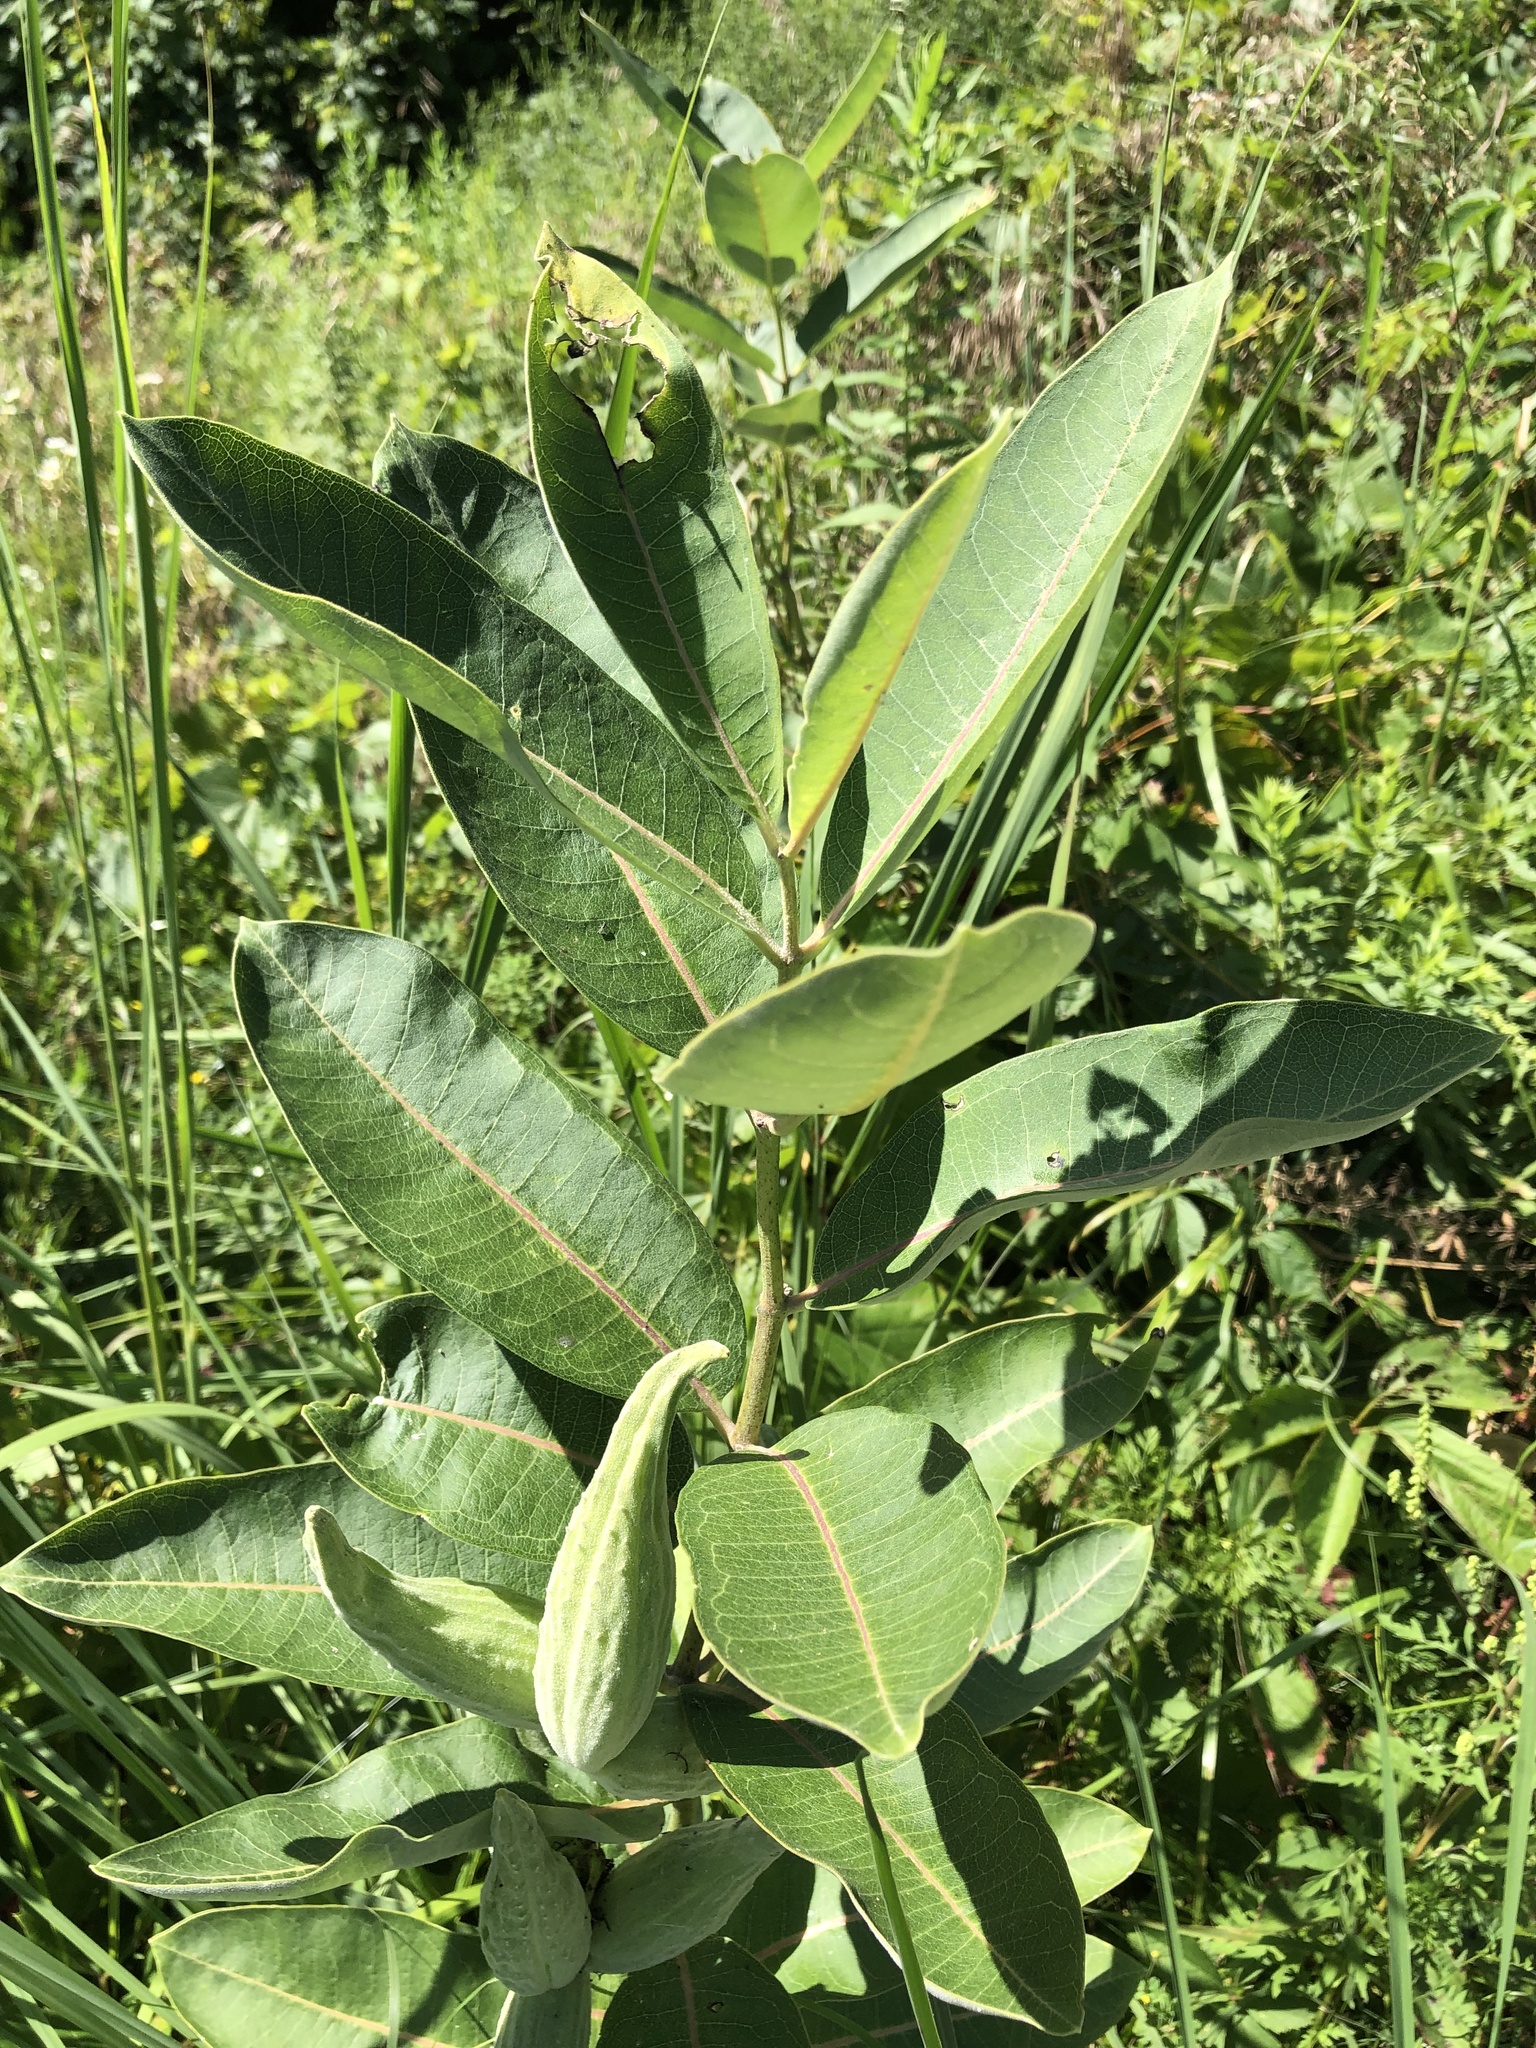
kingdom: Plantae
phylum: Tracheophyta
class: Magnoliopsida
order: Gentianales
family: Apocynaceae
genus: Asclepias
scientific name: Asclepias syriaca
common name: Common milkweed
